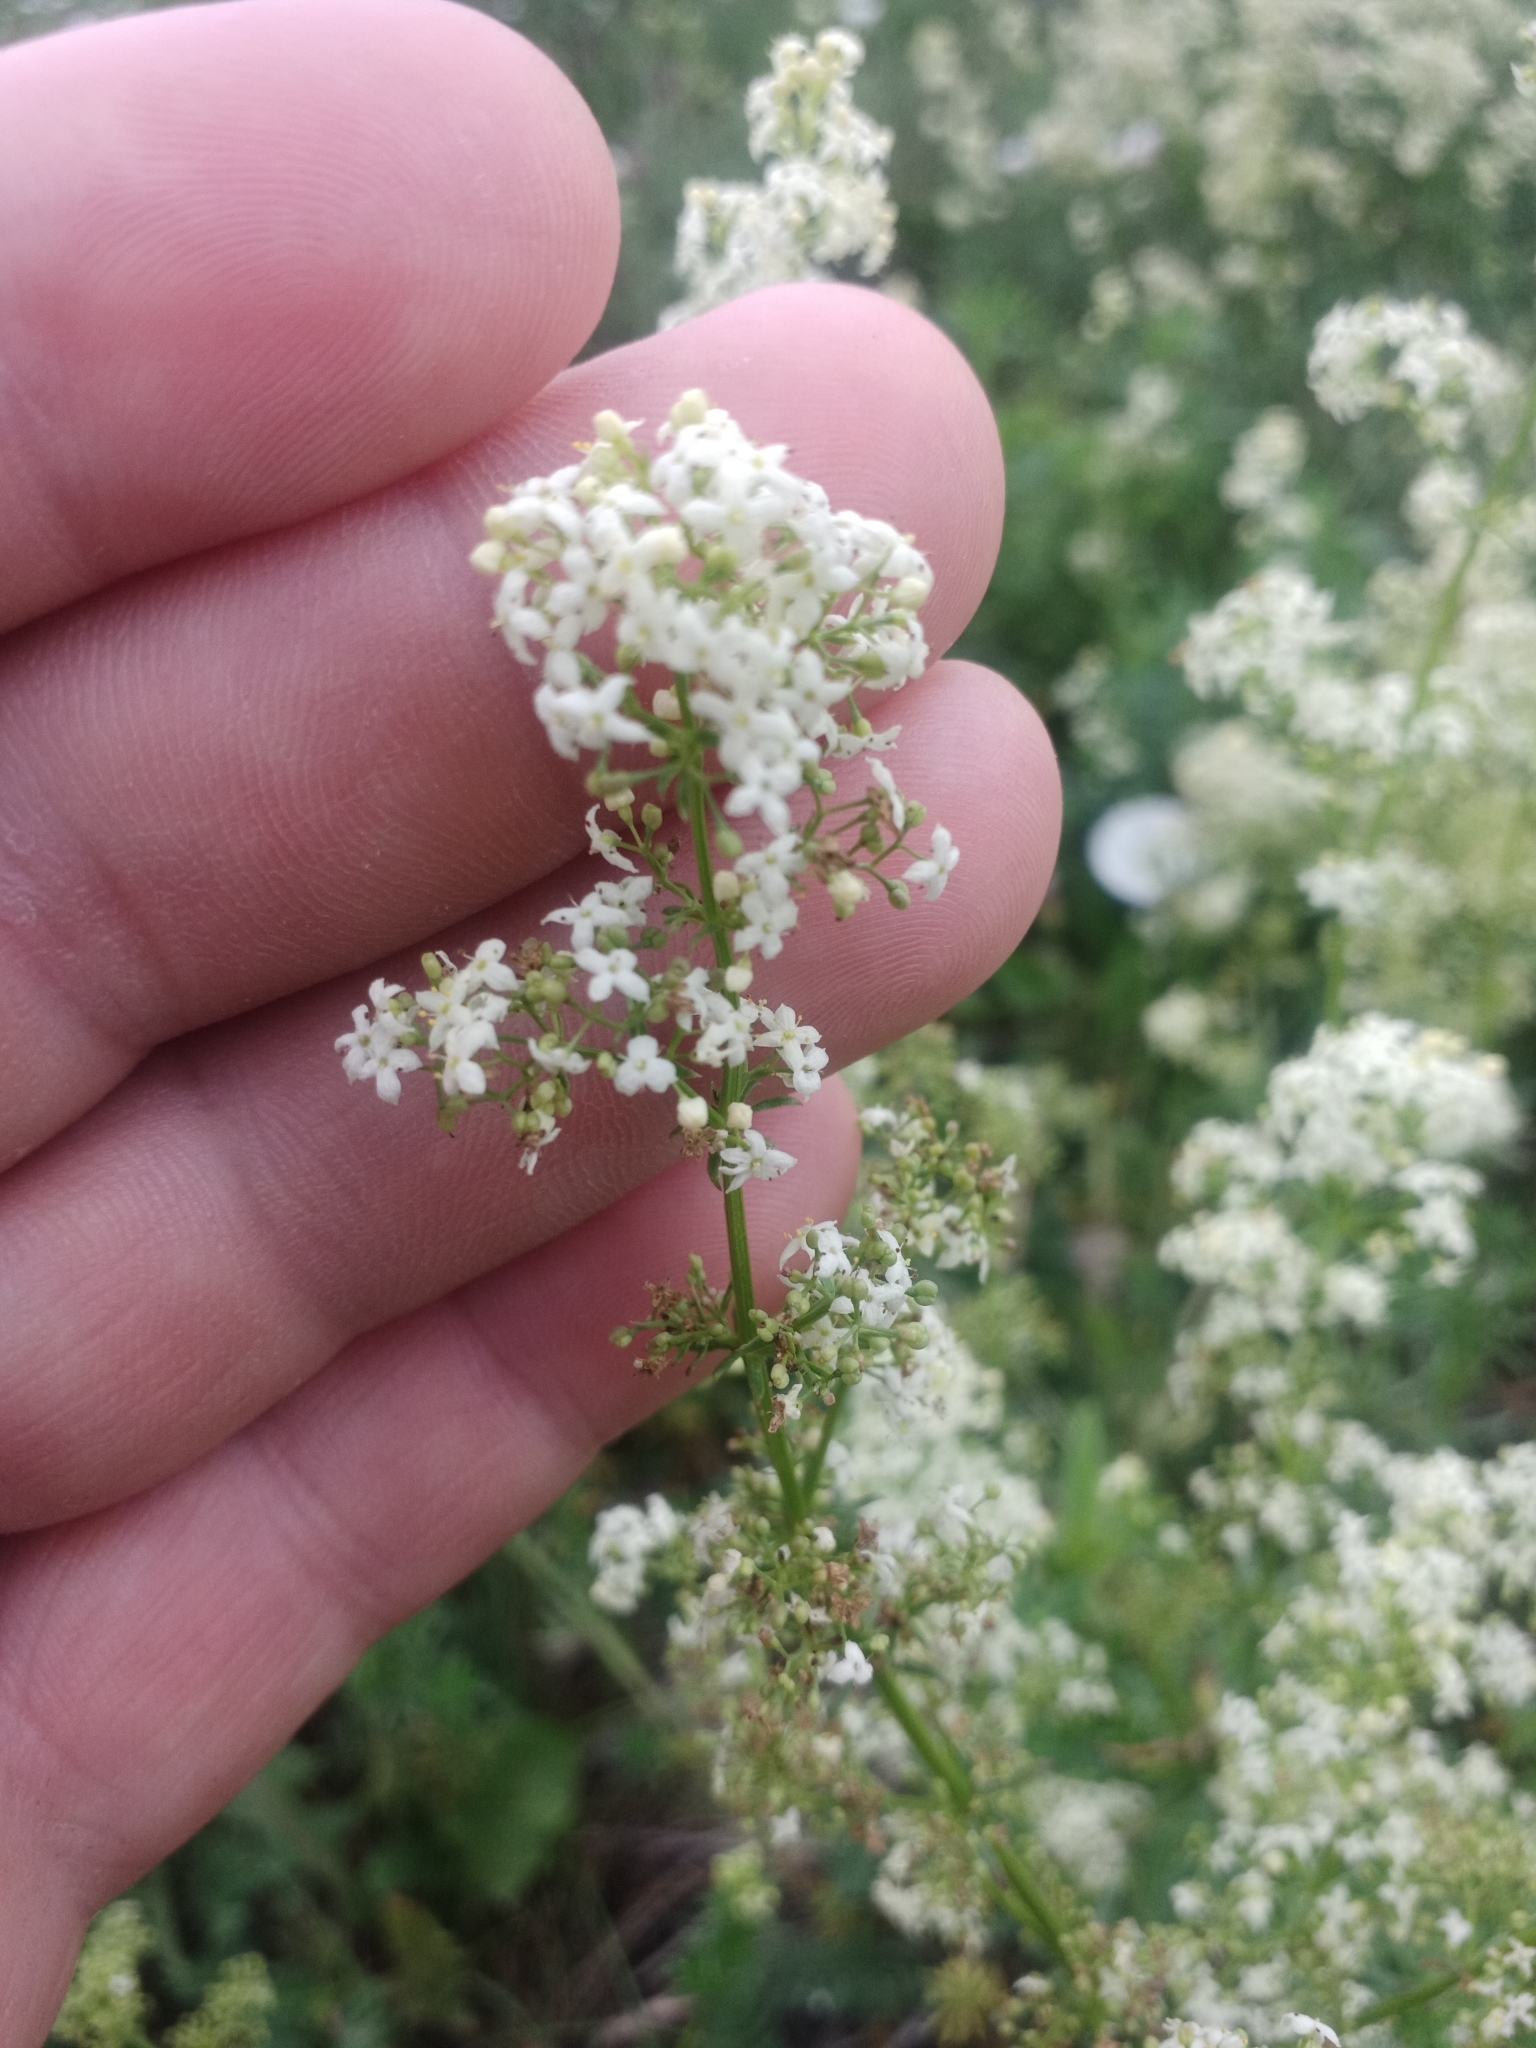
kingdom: Plantae
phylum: Tracheophyta
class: Magnoliopsida
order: Gentianales
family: Rubiaceae
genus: Galium
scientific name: Galium mollugo
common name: Hedge bedstraw
